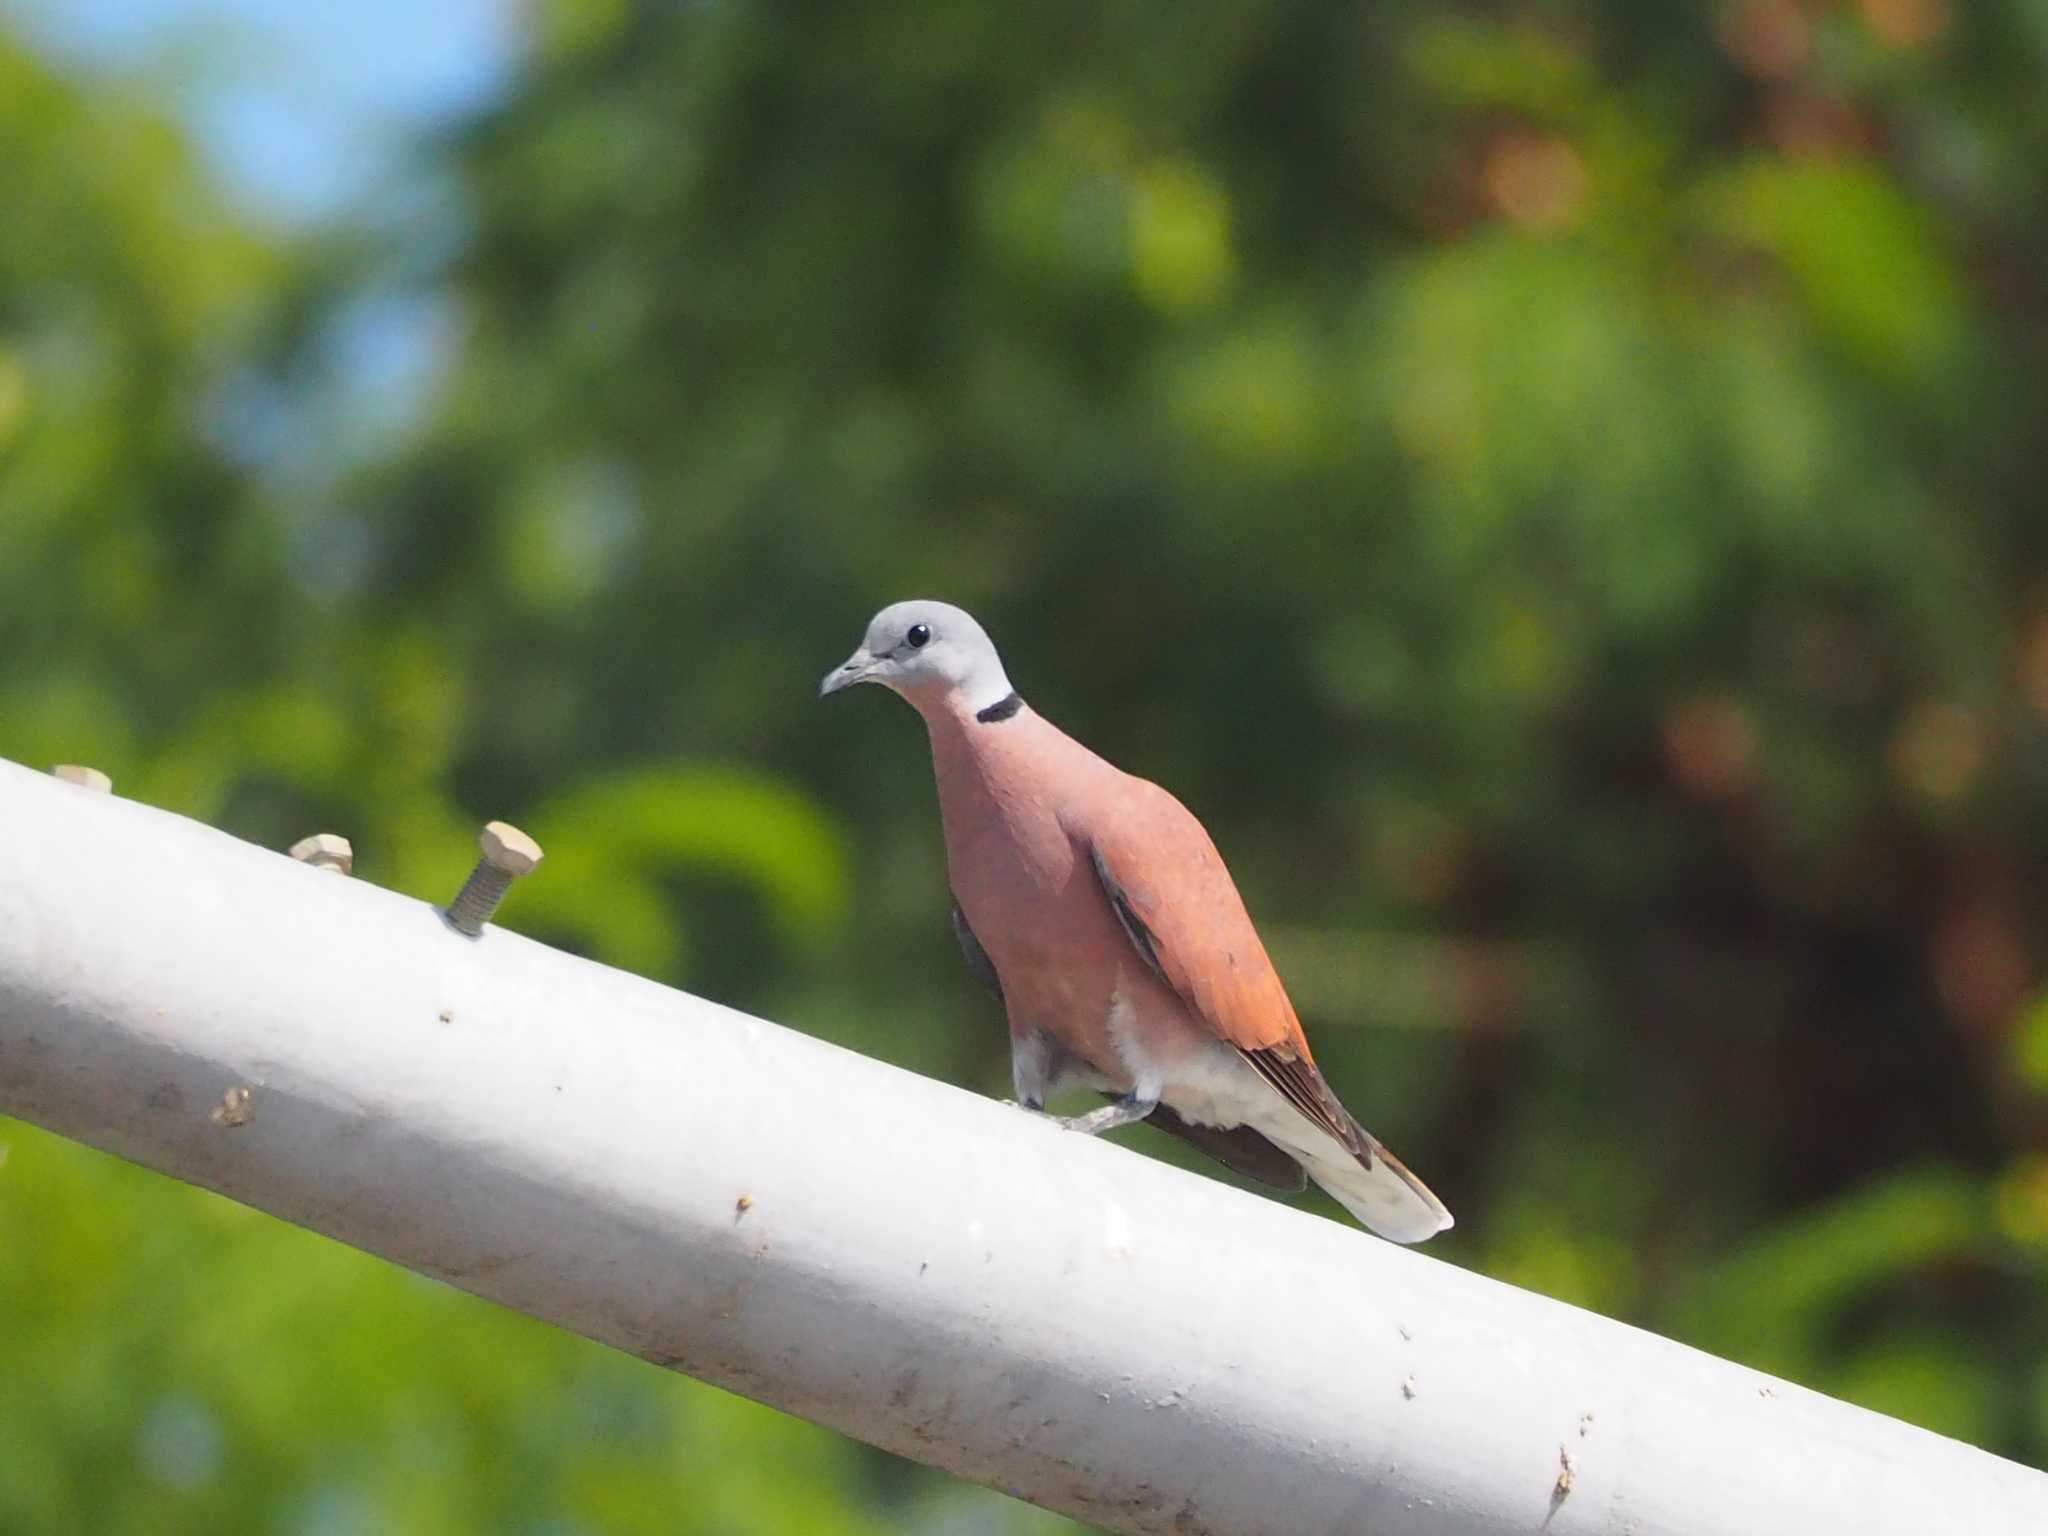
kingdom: Animalia
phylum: Chordata
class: Aves
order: Columbiformes
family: Columbidae
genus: Streptopelia
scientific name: Streptopelia tranquebarica
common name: Red turtle dove
